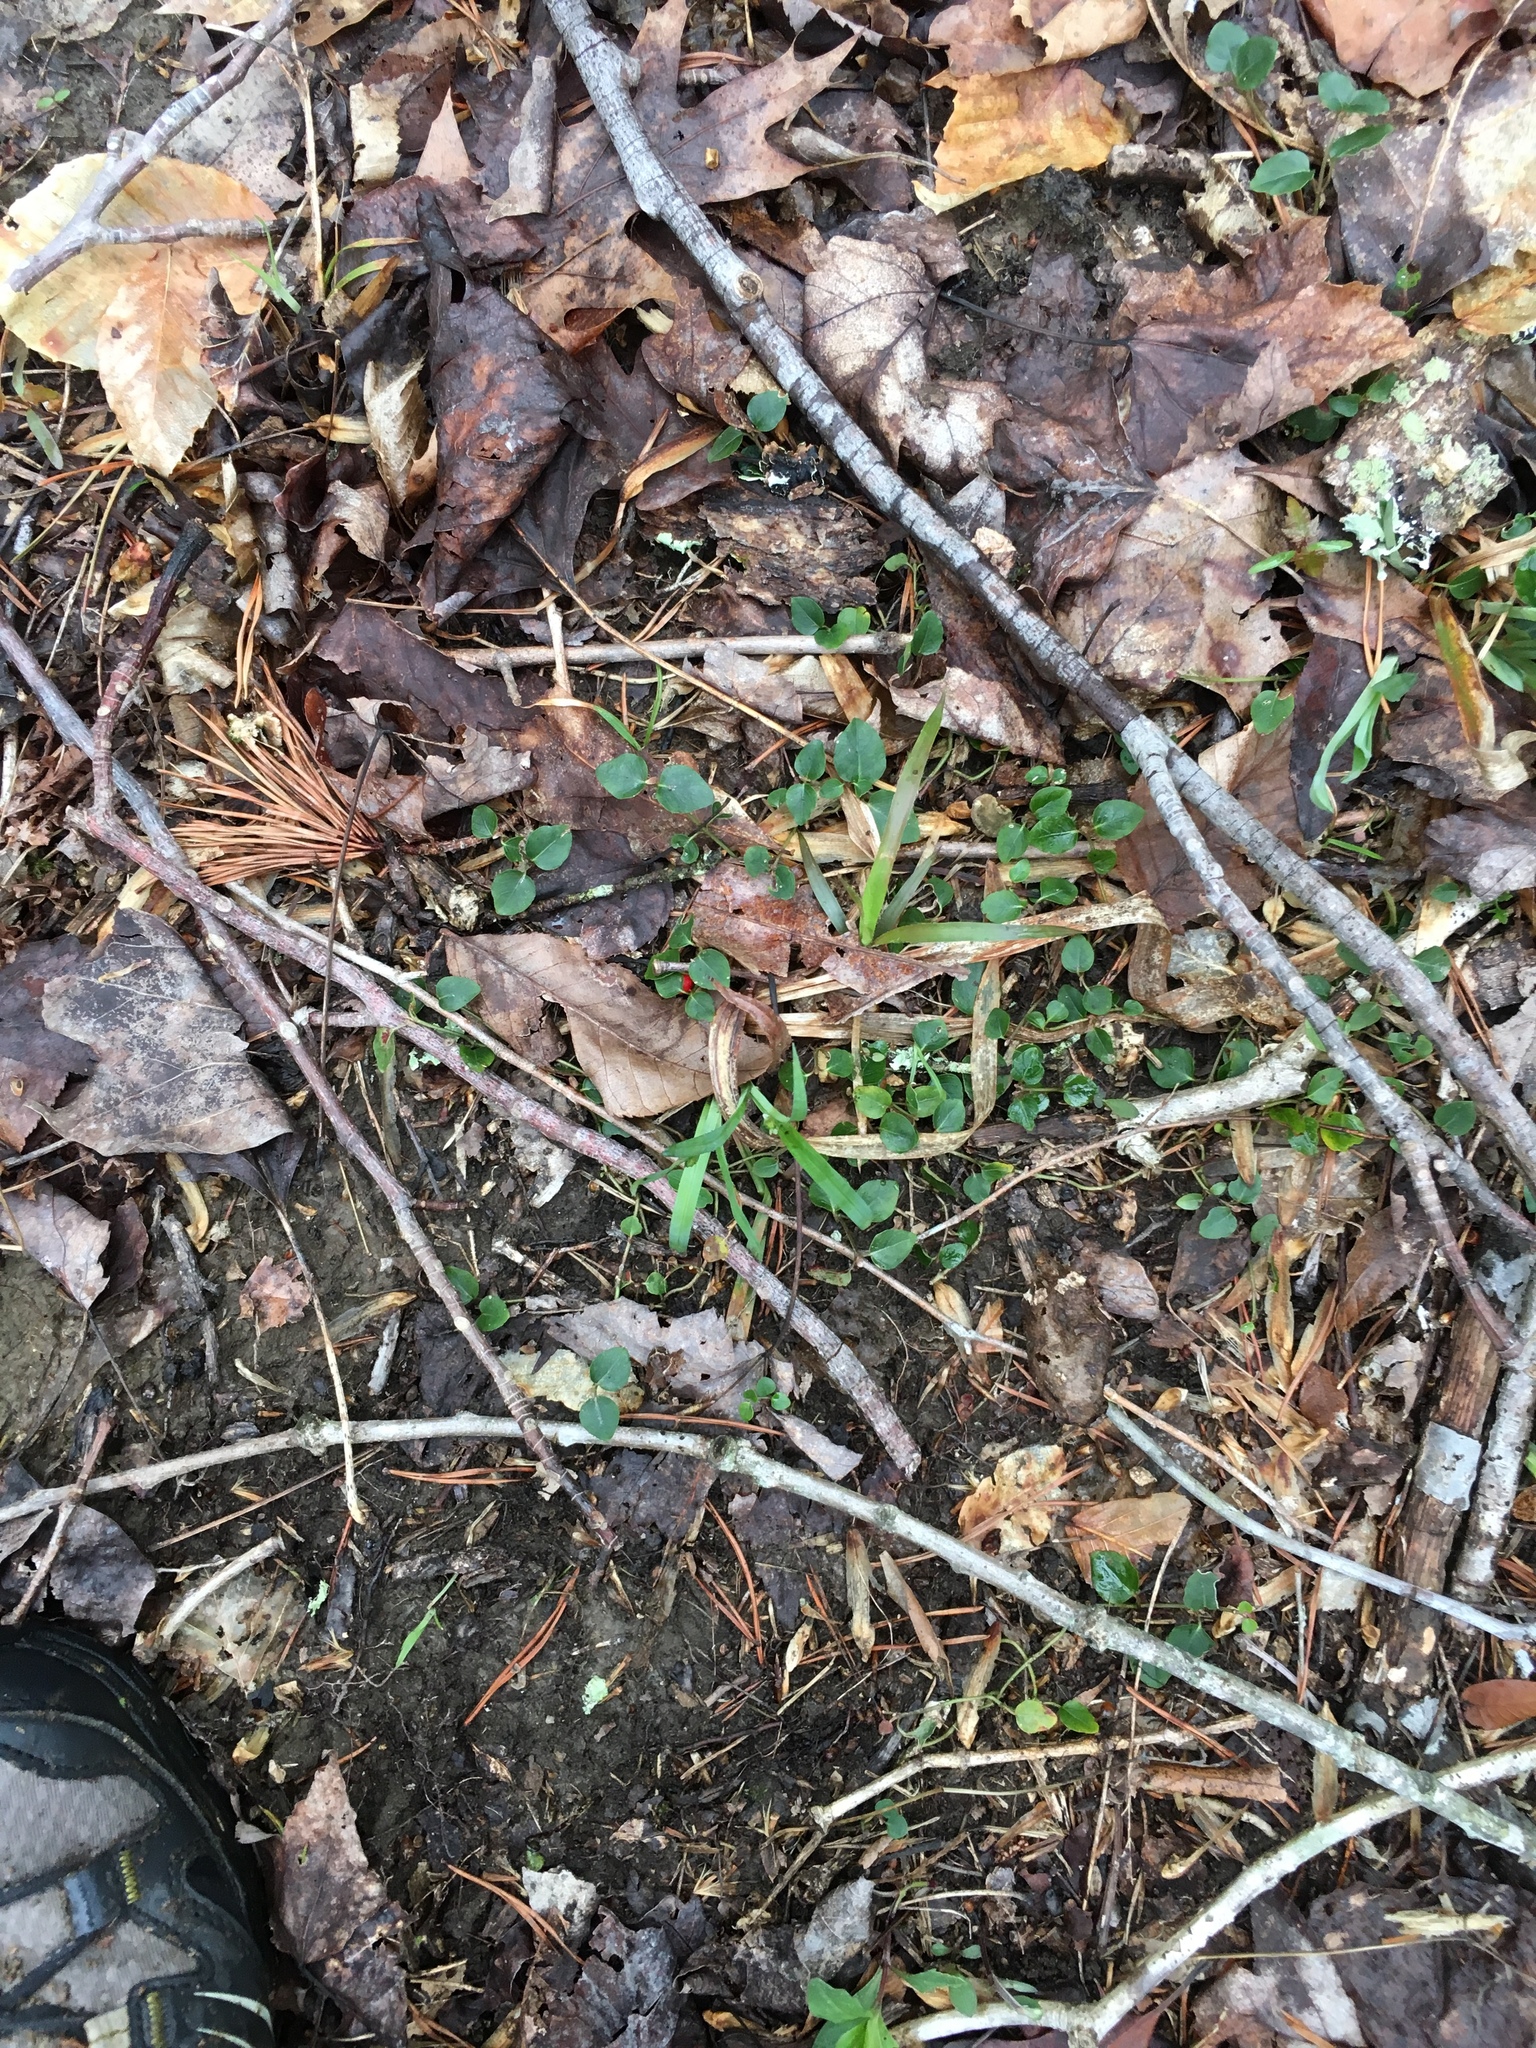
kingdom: Plantae
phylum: Tracheophyta
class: Magnoliopsida
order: Gentianales
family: Rubiaceae
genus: Mitchella
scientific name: Mitchella repens
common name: Partridge-berry
